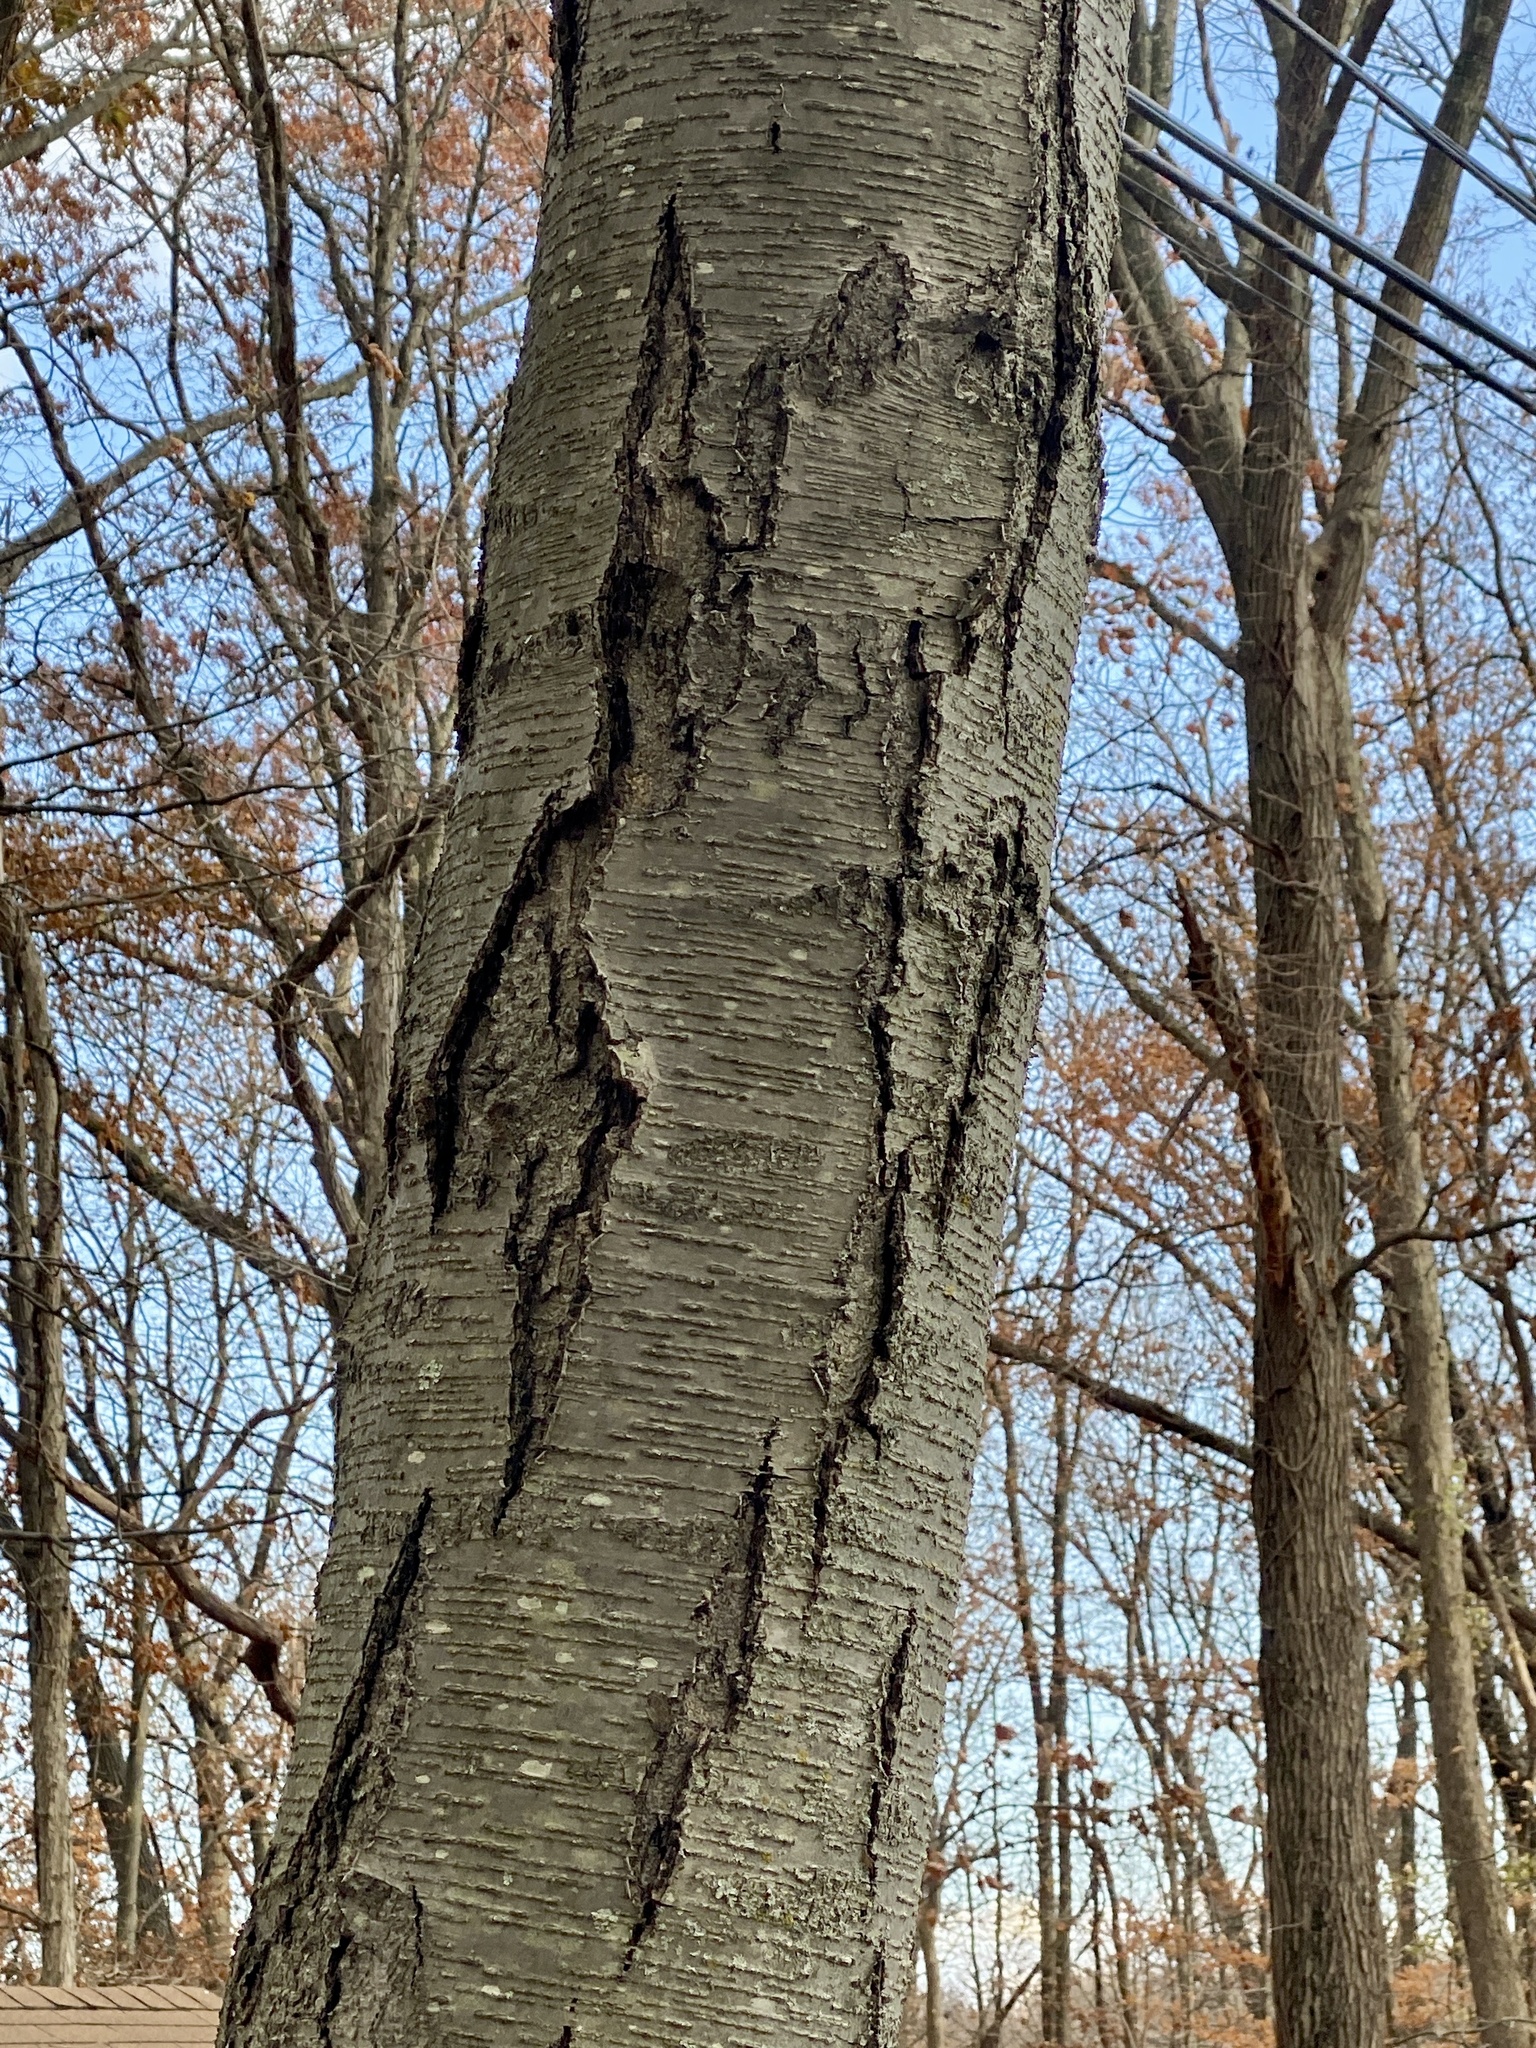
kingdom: Plantae
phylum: Tracheophyta
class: Magnoliopsida
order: Fagales
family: Betulaceae
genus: Betula
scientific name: Betula lenta
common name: Black birch
